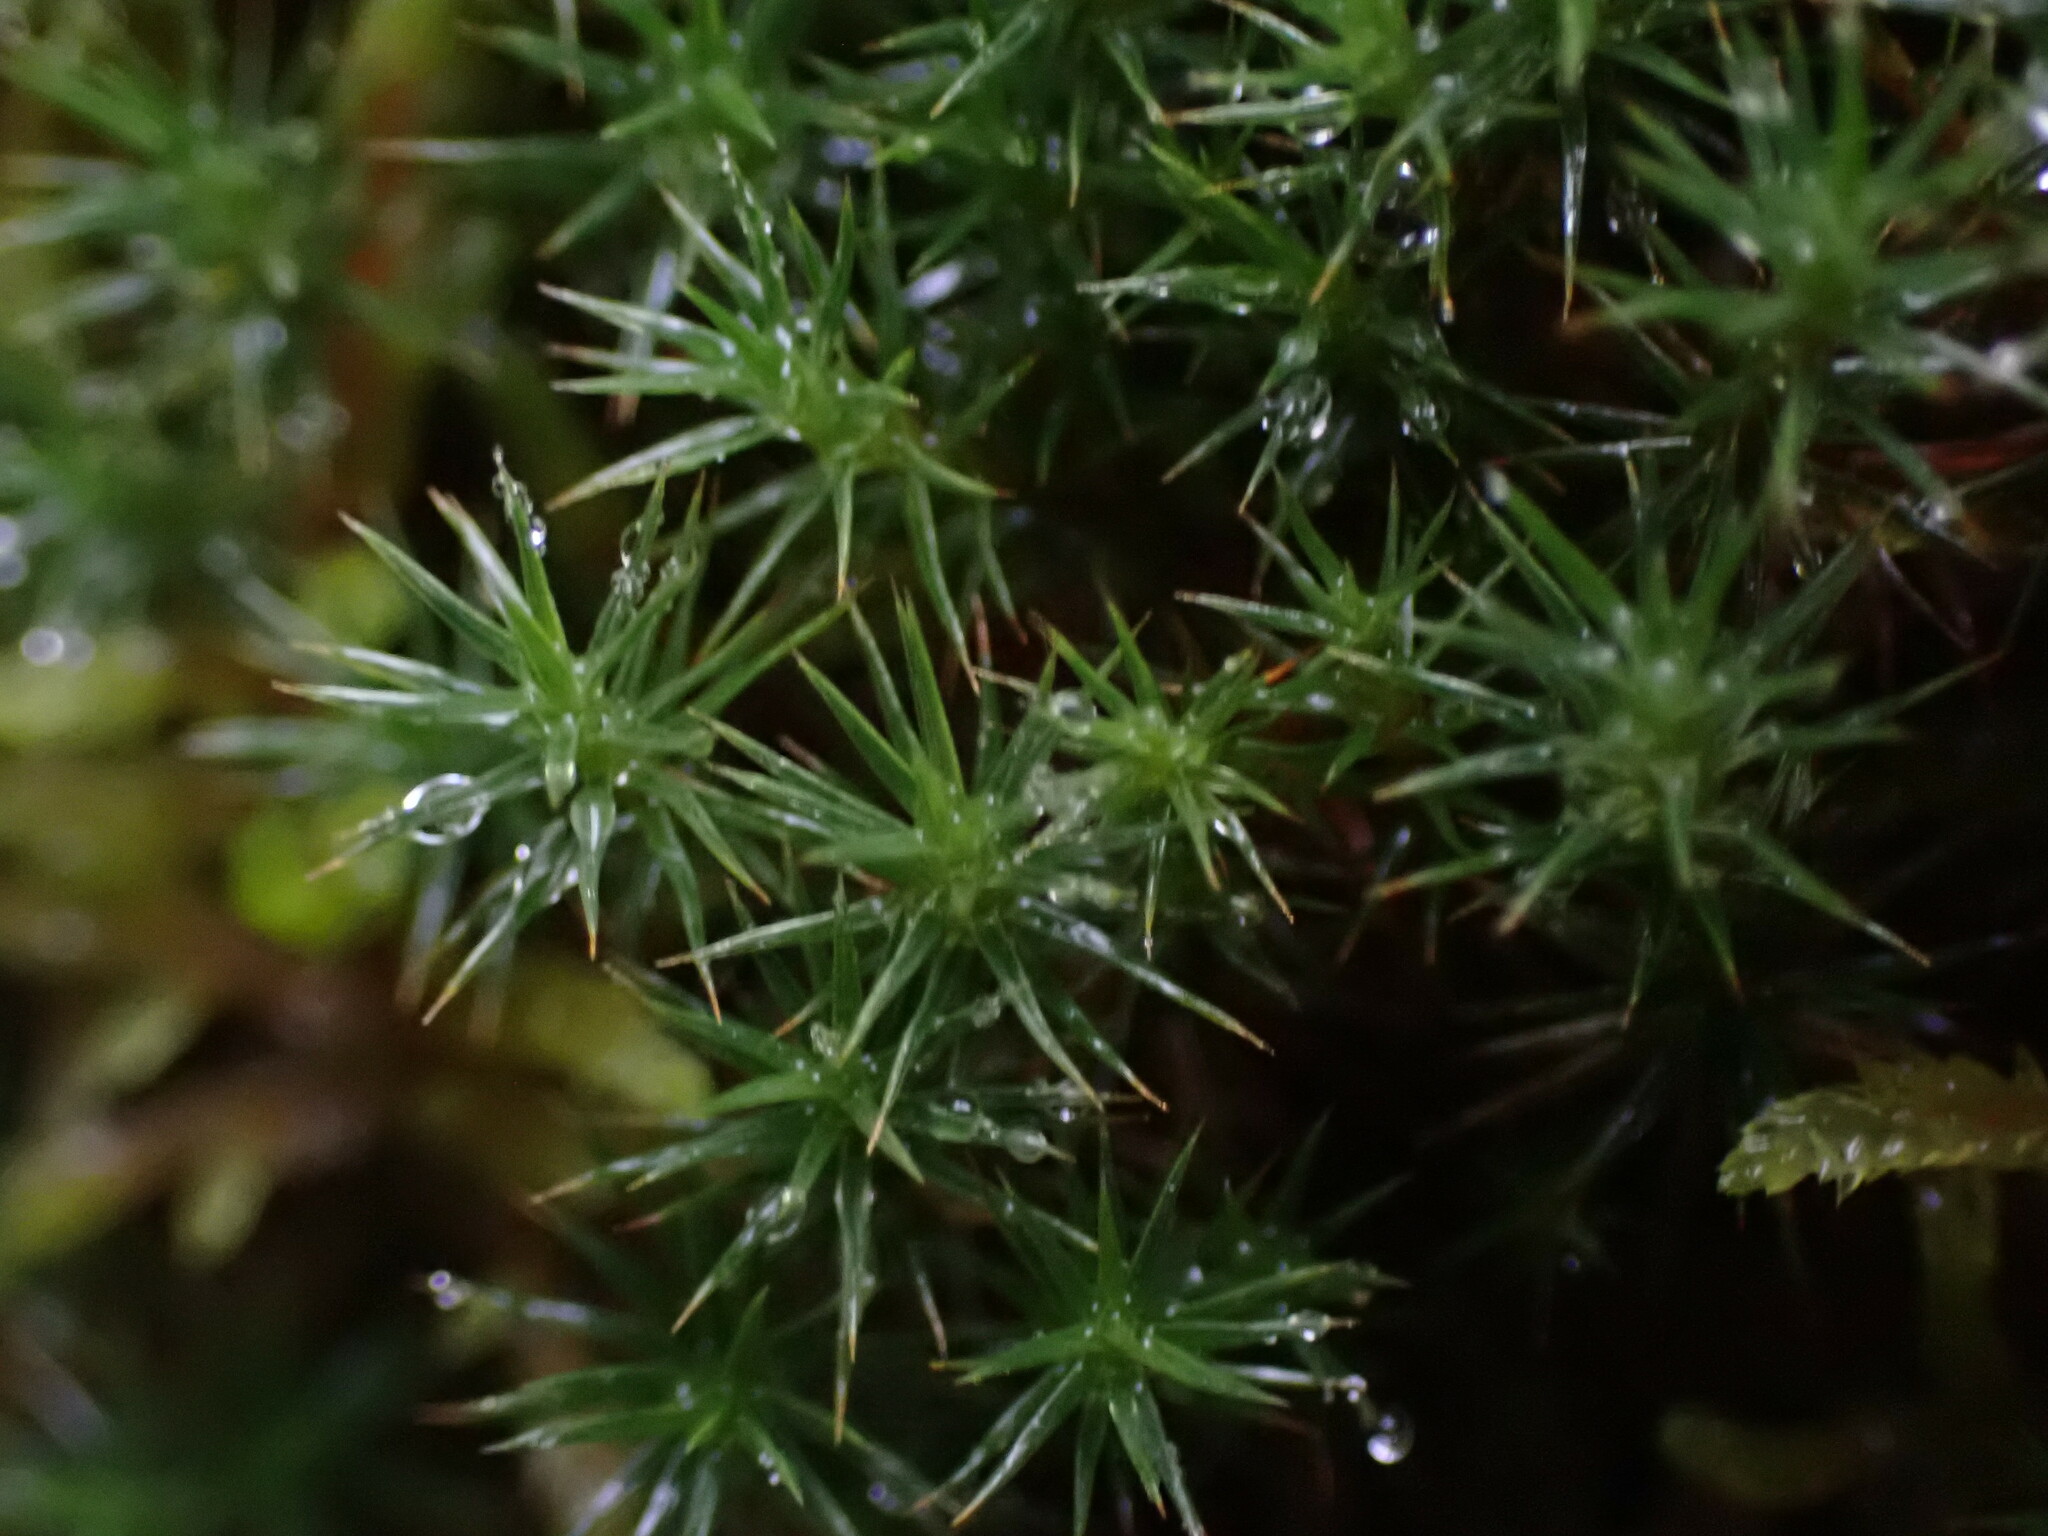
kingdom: Plantae
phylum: Bryophyta
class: Polytrichopsida
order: Polytrichales
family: Polytrichaceae
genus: Polytrichum
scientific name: Polytrichum juniperinum
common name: Juniper haircap moss
